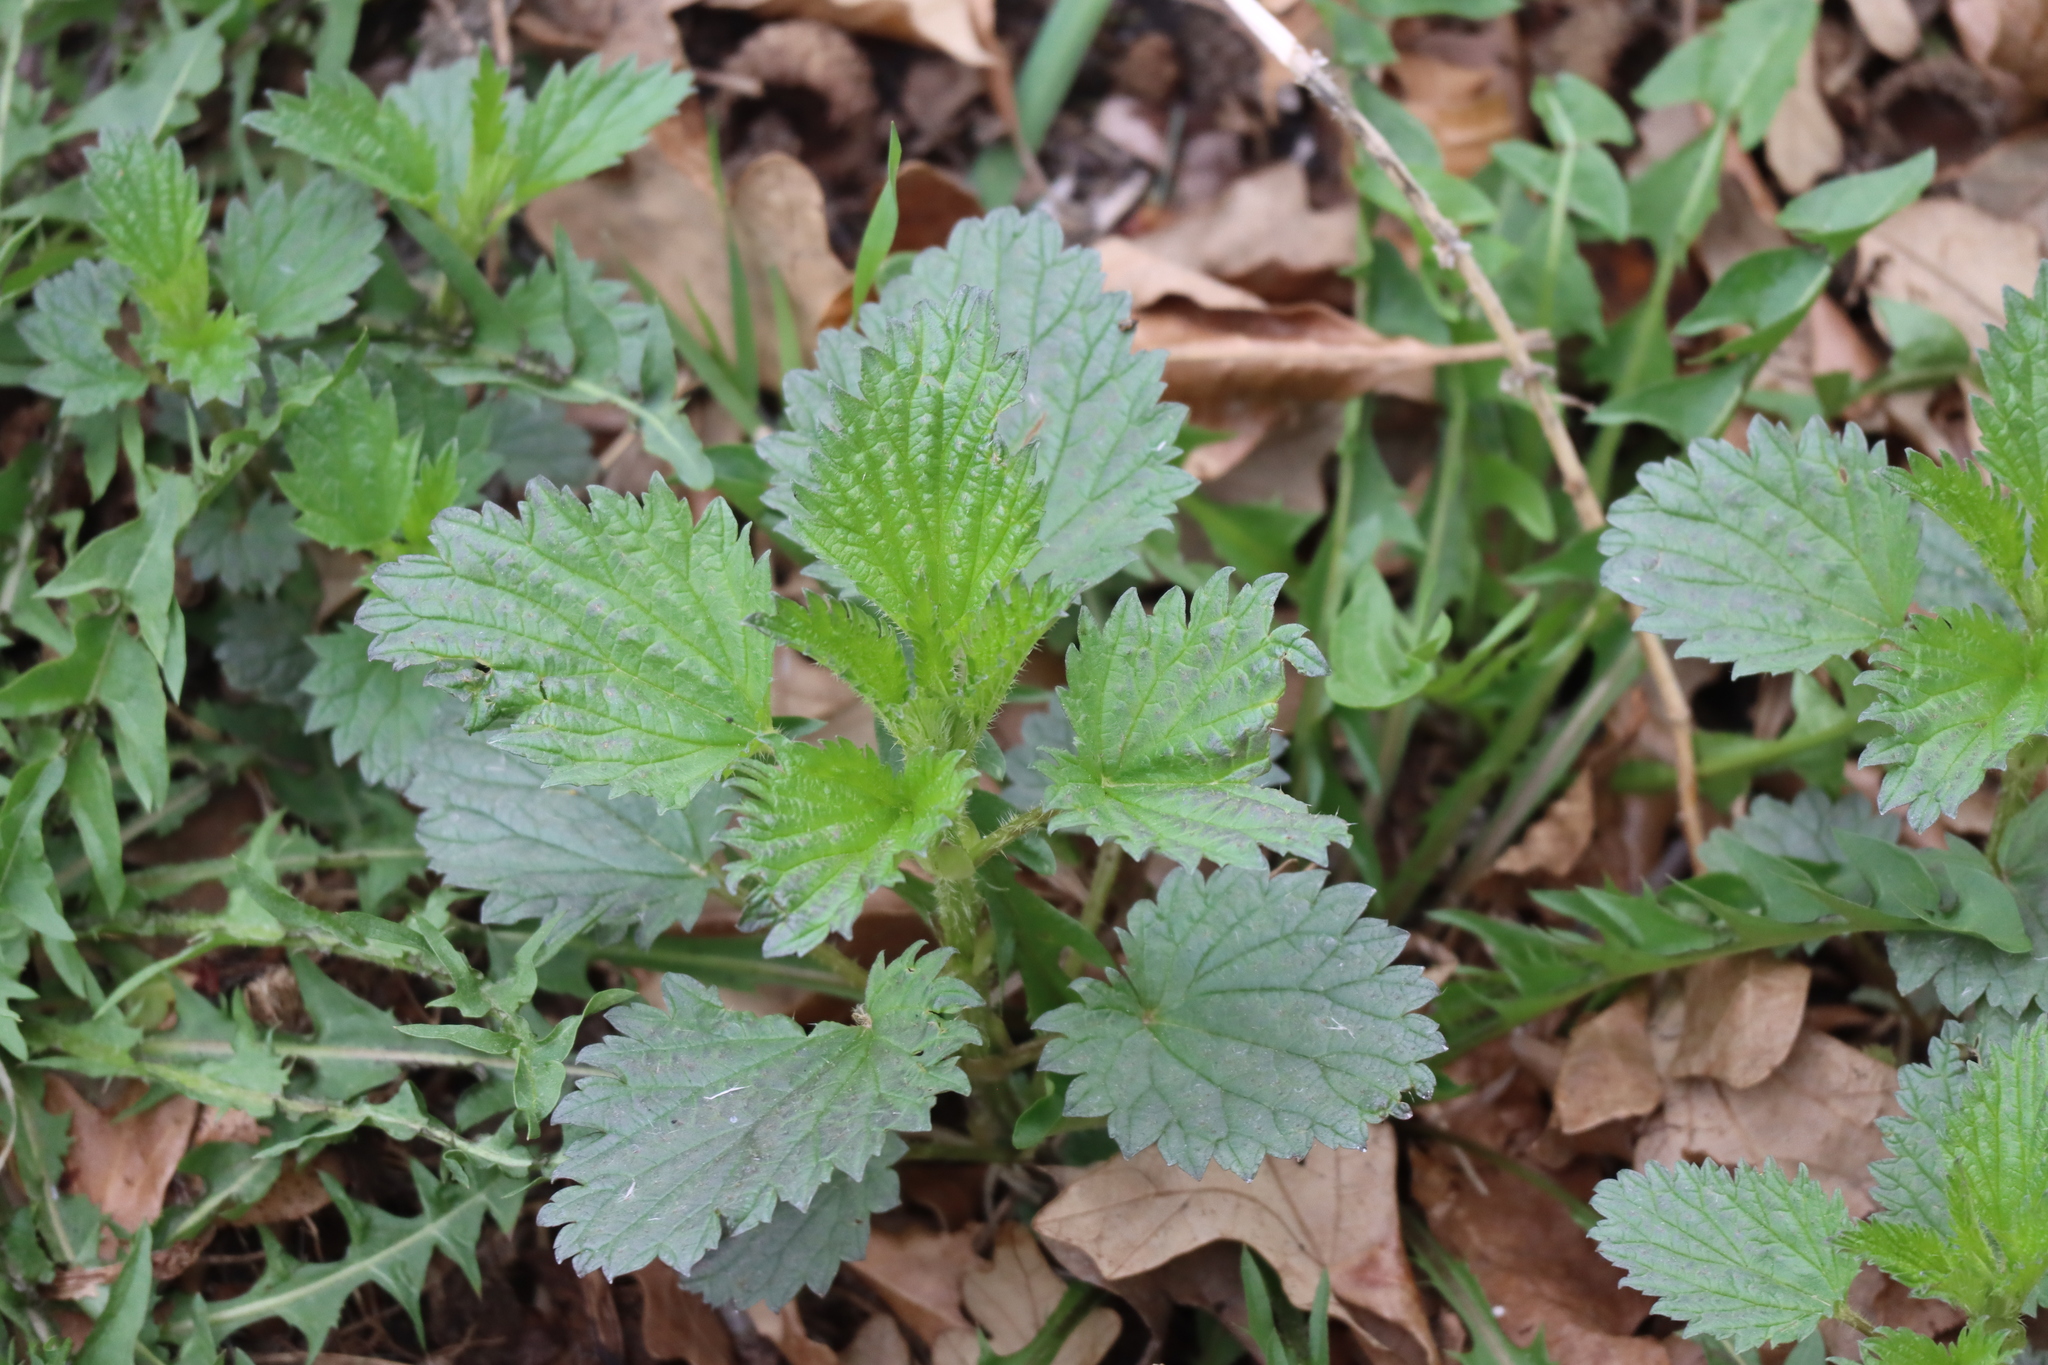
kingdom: Plantae
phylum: Tracheophyta
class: Magnoliopsida
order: Rosales
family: Urticaceae
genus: Urtica
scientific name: Urtica gracilis
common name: Slender stinging nettle
